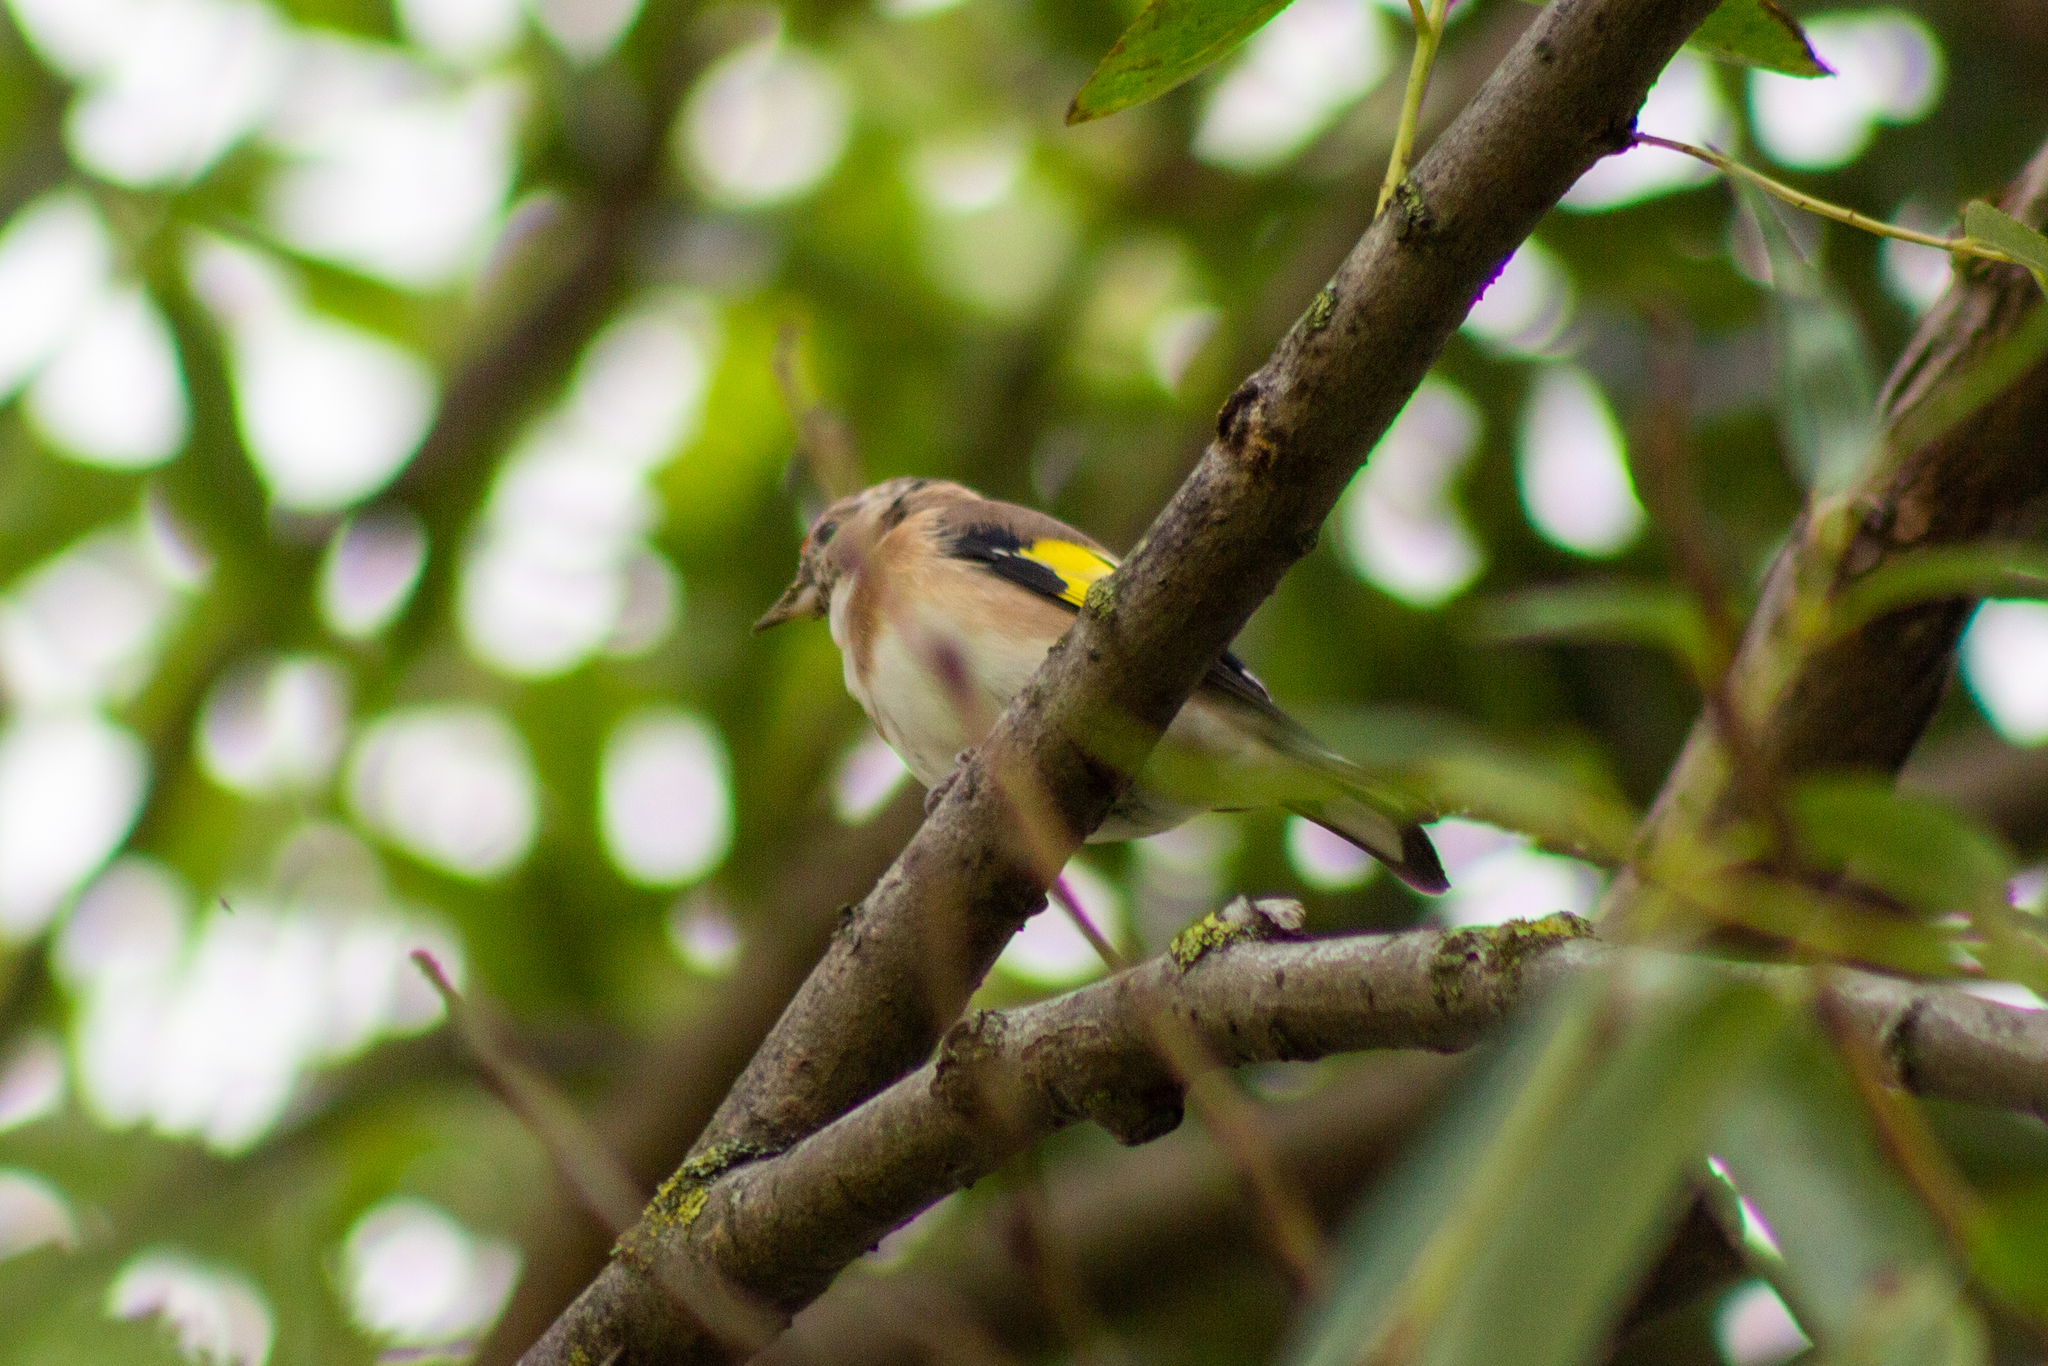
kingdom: Animalia
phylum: Chordata
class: Aves
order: Passeriformes
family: Fringillidae
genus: Carduelis
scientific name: Carduelis carduelis
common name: European goldfinch
